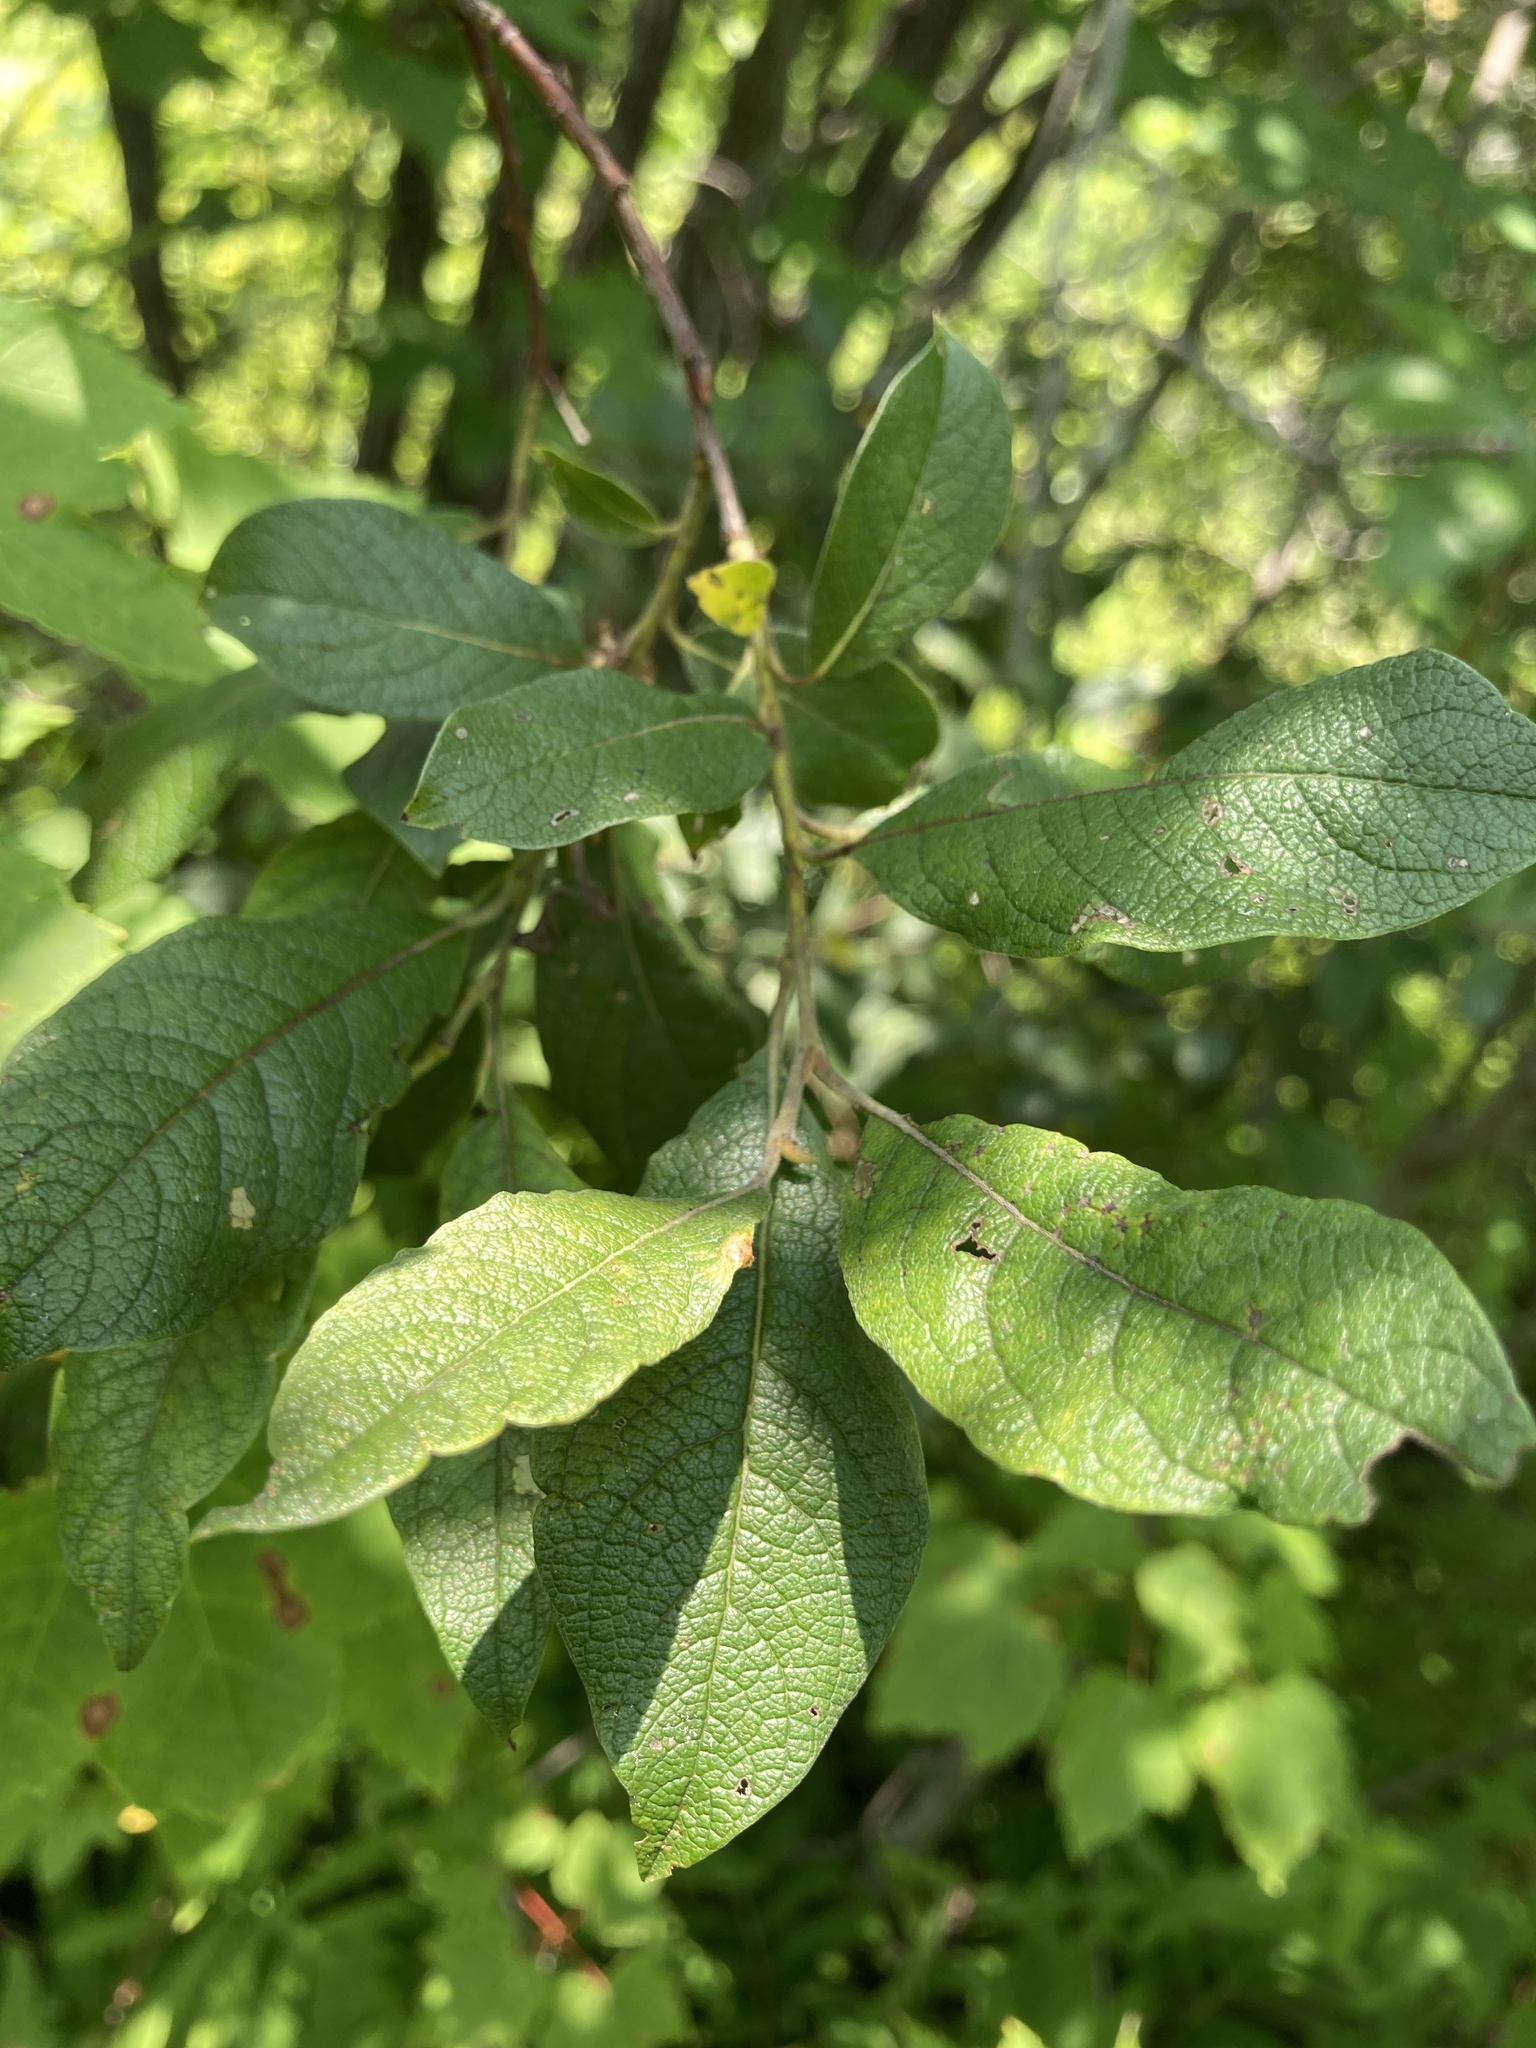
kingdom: Plantae
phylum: Tracheophyta
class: Magnoliopsida
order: Malpighiales
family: Salicaceae
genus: Salix
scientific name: Salix bebbiana
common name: Bebb's willow
